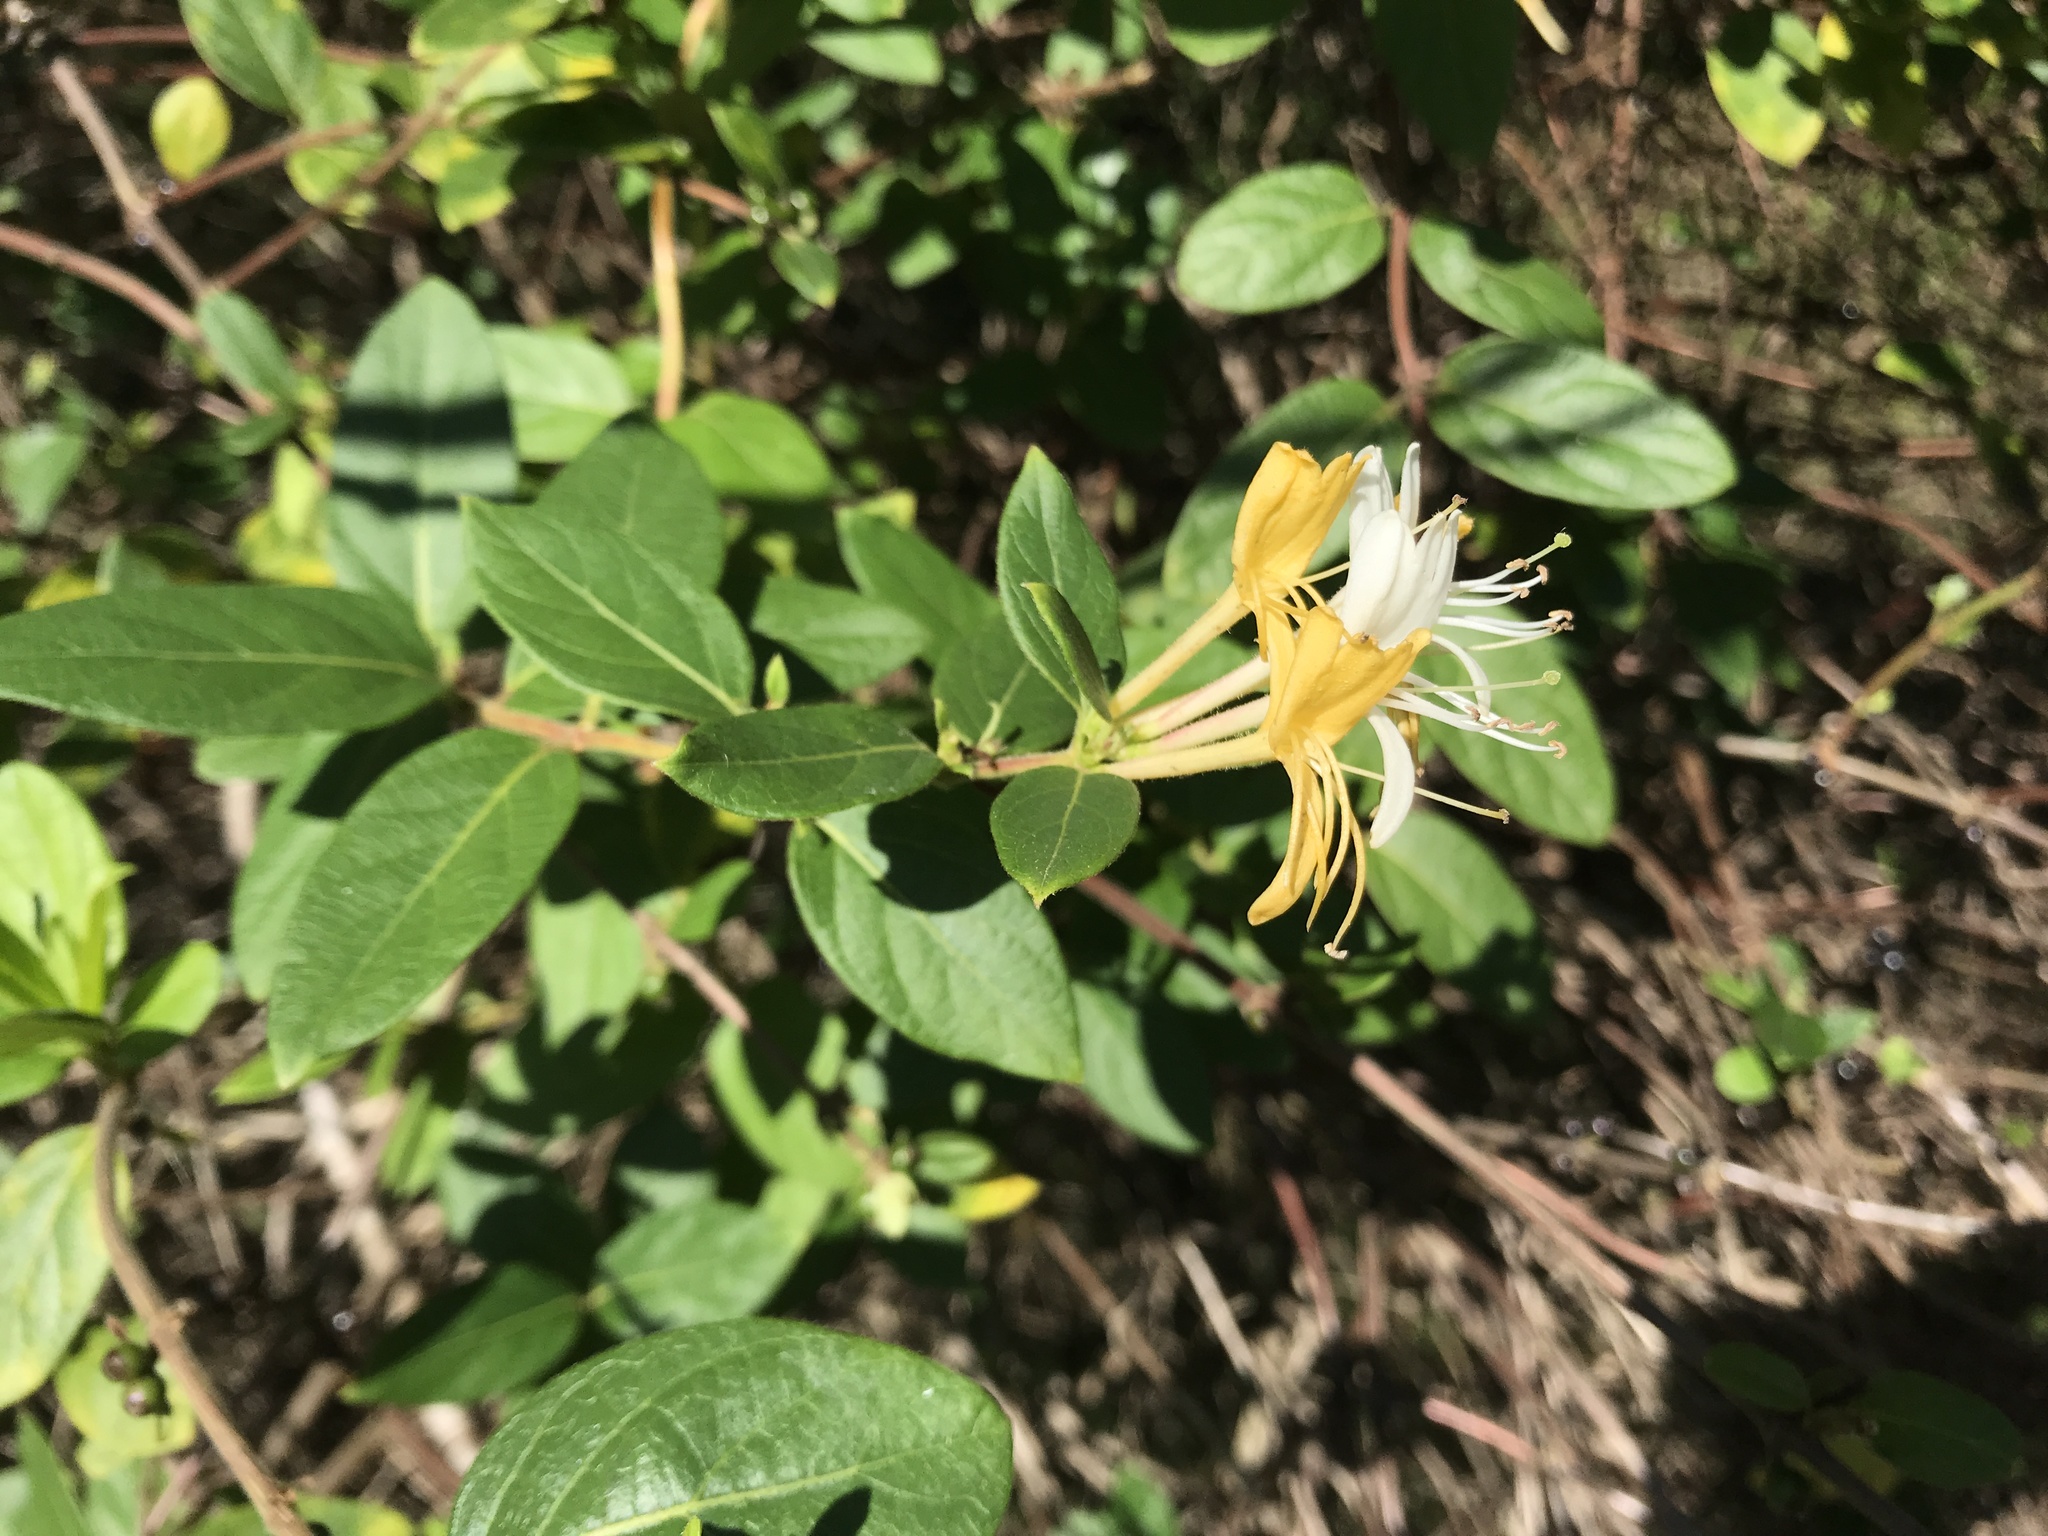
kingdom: Plantae
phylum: Tracheophyta
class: Magnoliopsida
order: Dipsacales
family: Caprifoliaceae
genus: Lonicera
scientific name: Lonicera japonica
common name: Japanese honeysuckle
